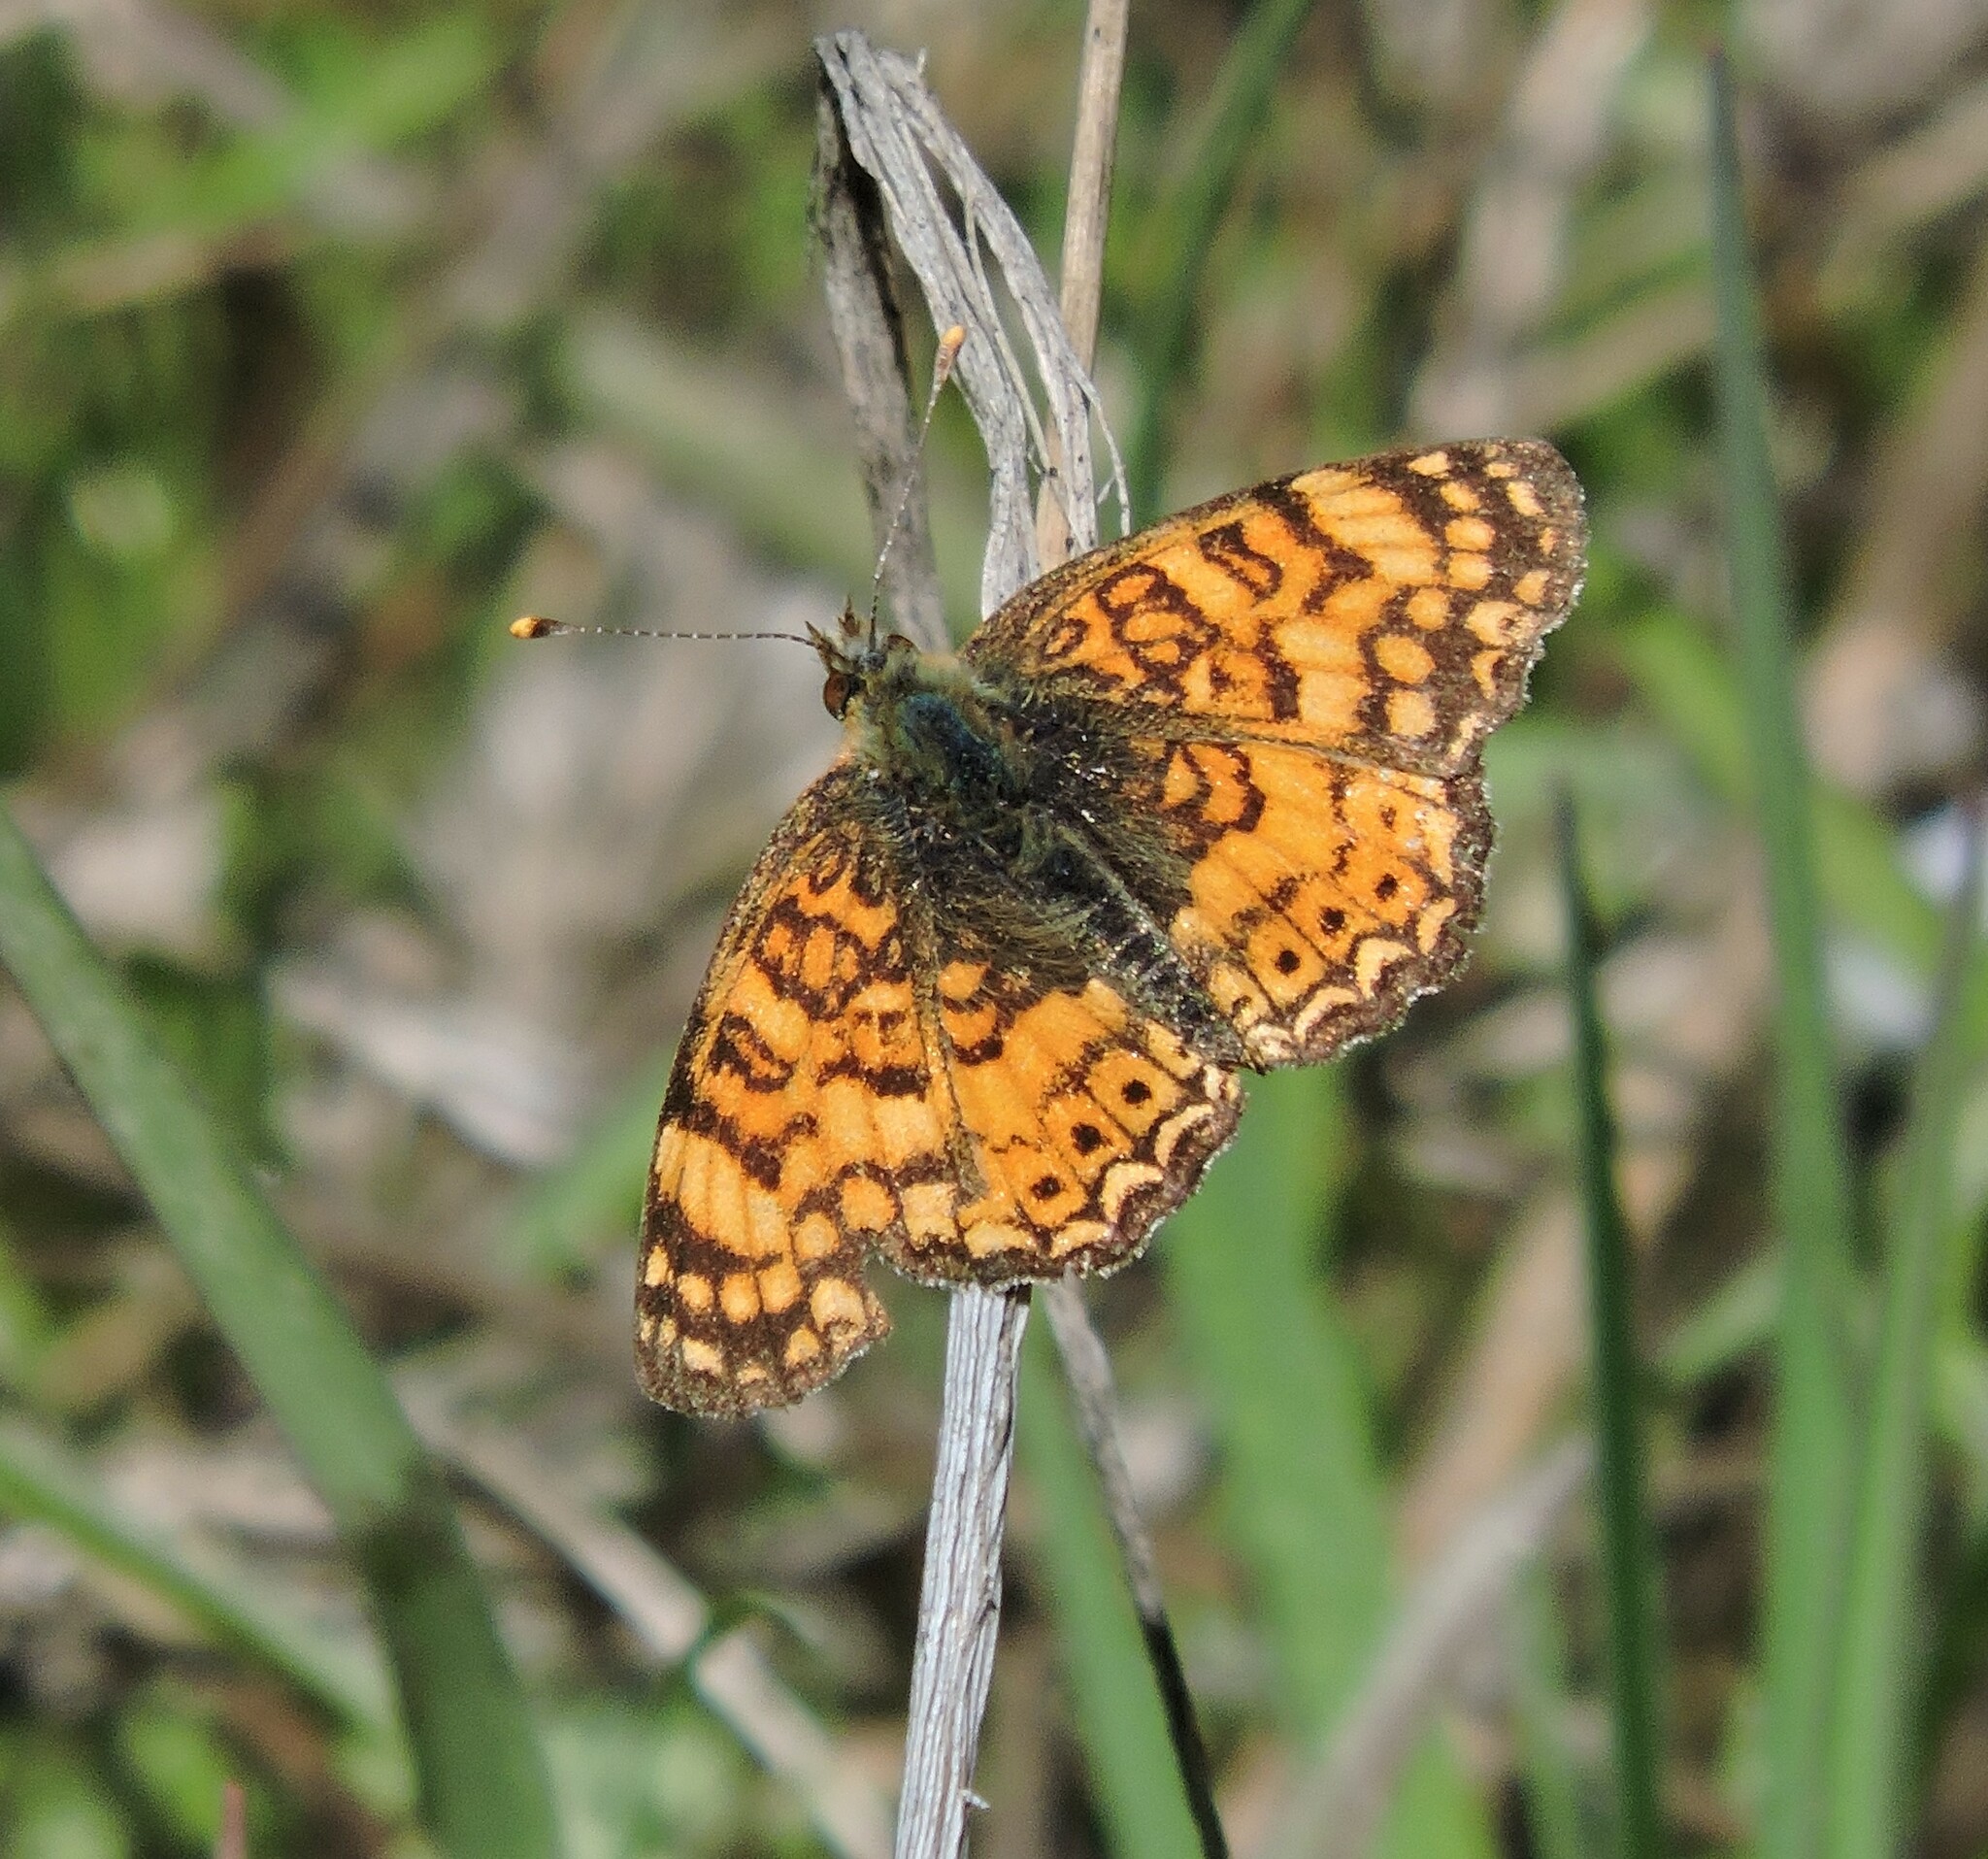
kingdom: Animalia
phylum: Arthropoda
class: Insecta
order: Lepidoptera
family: Nymphalidae
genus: Eresia
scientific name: Eresia aveyrona
